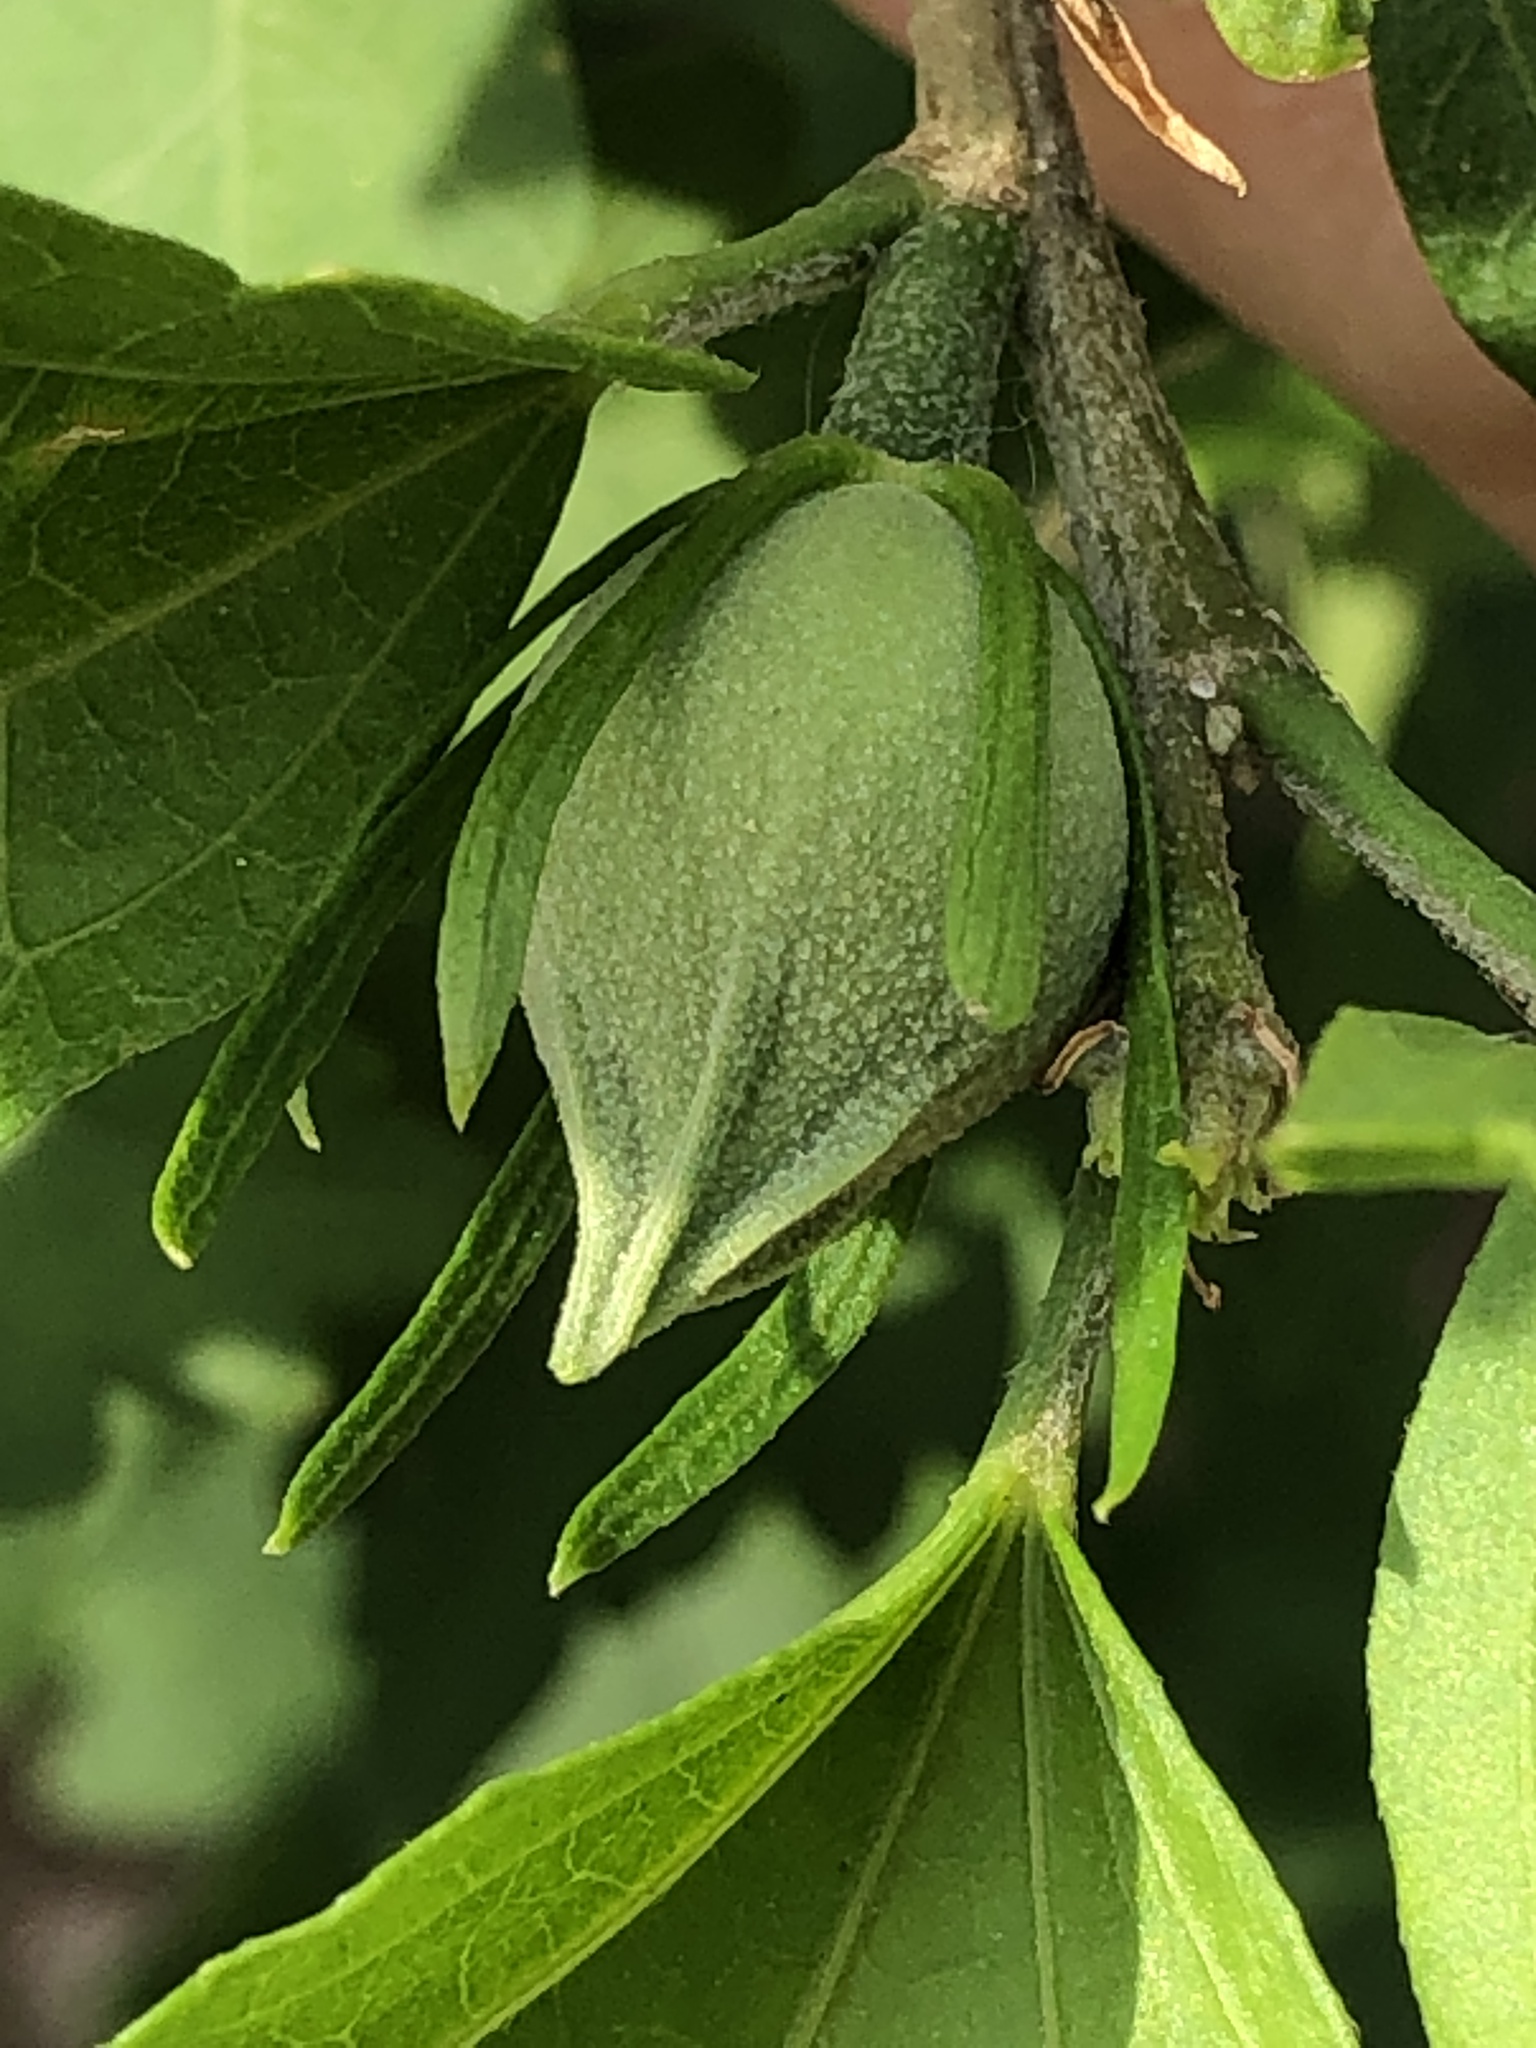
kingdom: Plantae
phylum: Tracheophyta
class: Magnoliopsida
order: Malvales
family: Malvaceae
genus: Hibiscus
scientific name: Hibiscus syriacus
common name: Syrian ketmia
